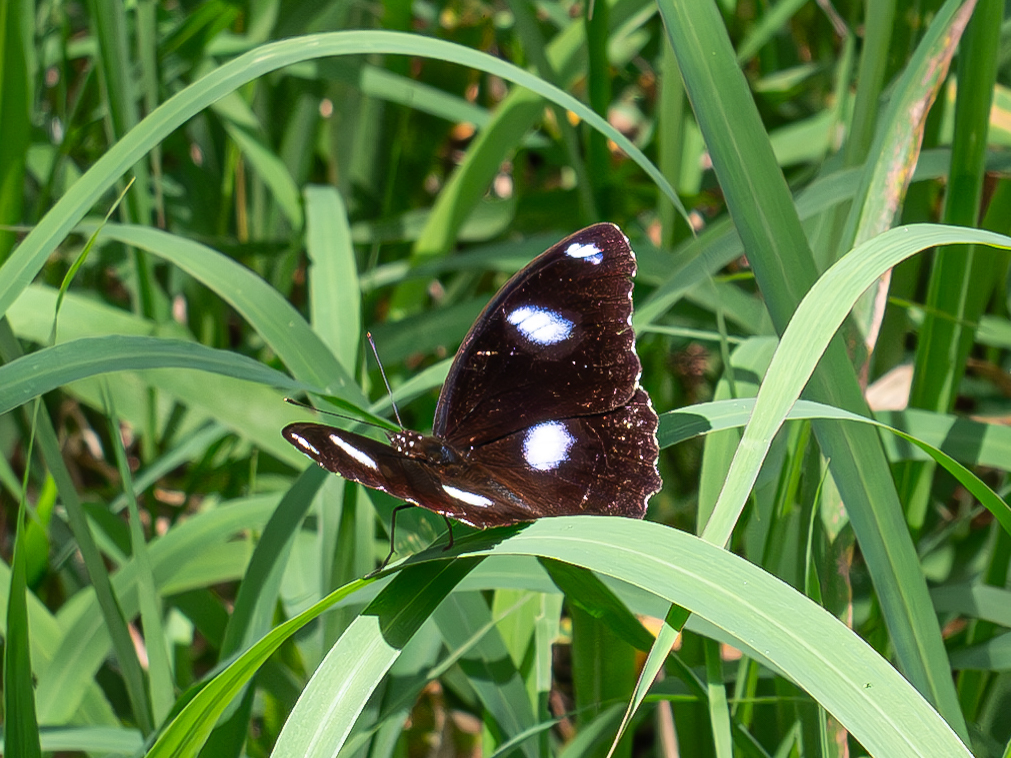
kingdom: Animalia
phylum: Arthropoda
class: Insecta
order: Lepidoptera
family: Nymphalidae
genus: Hypolimnas
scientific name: Hypolimnas bolina
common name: Great eggfly
